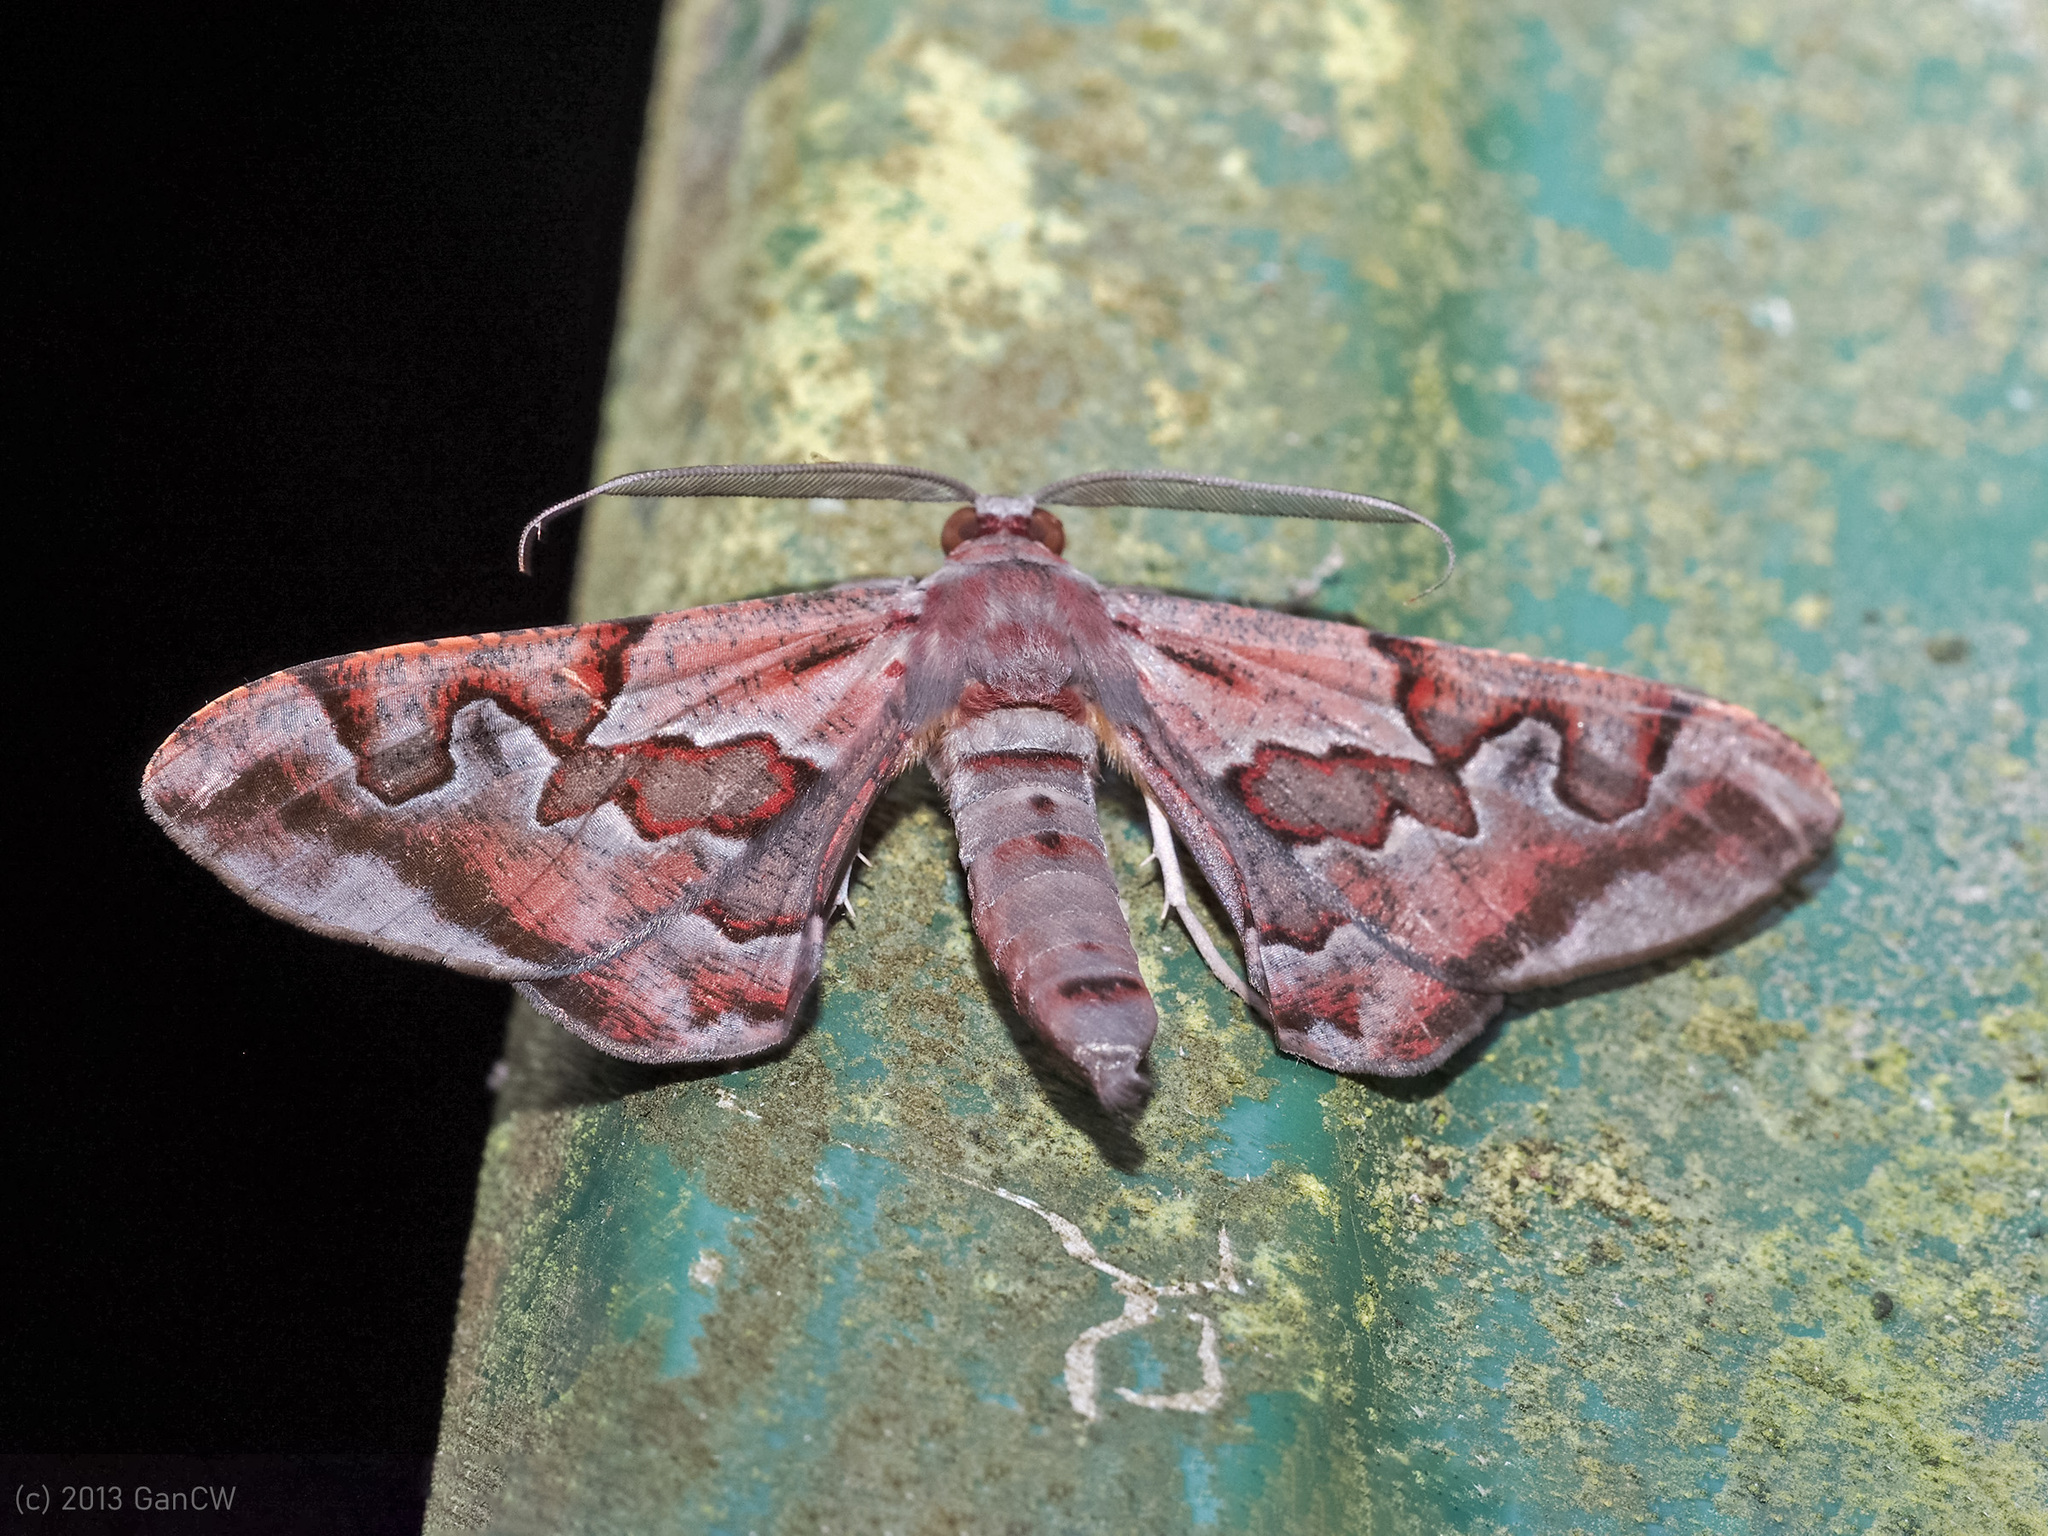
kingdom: Animalia
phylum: Arthropoda
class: Insecta
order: Lepidoptera
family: Geometridae
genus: Hypochrosis
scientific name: Hypochrosis binexata
